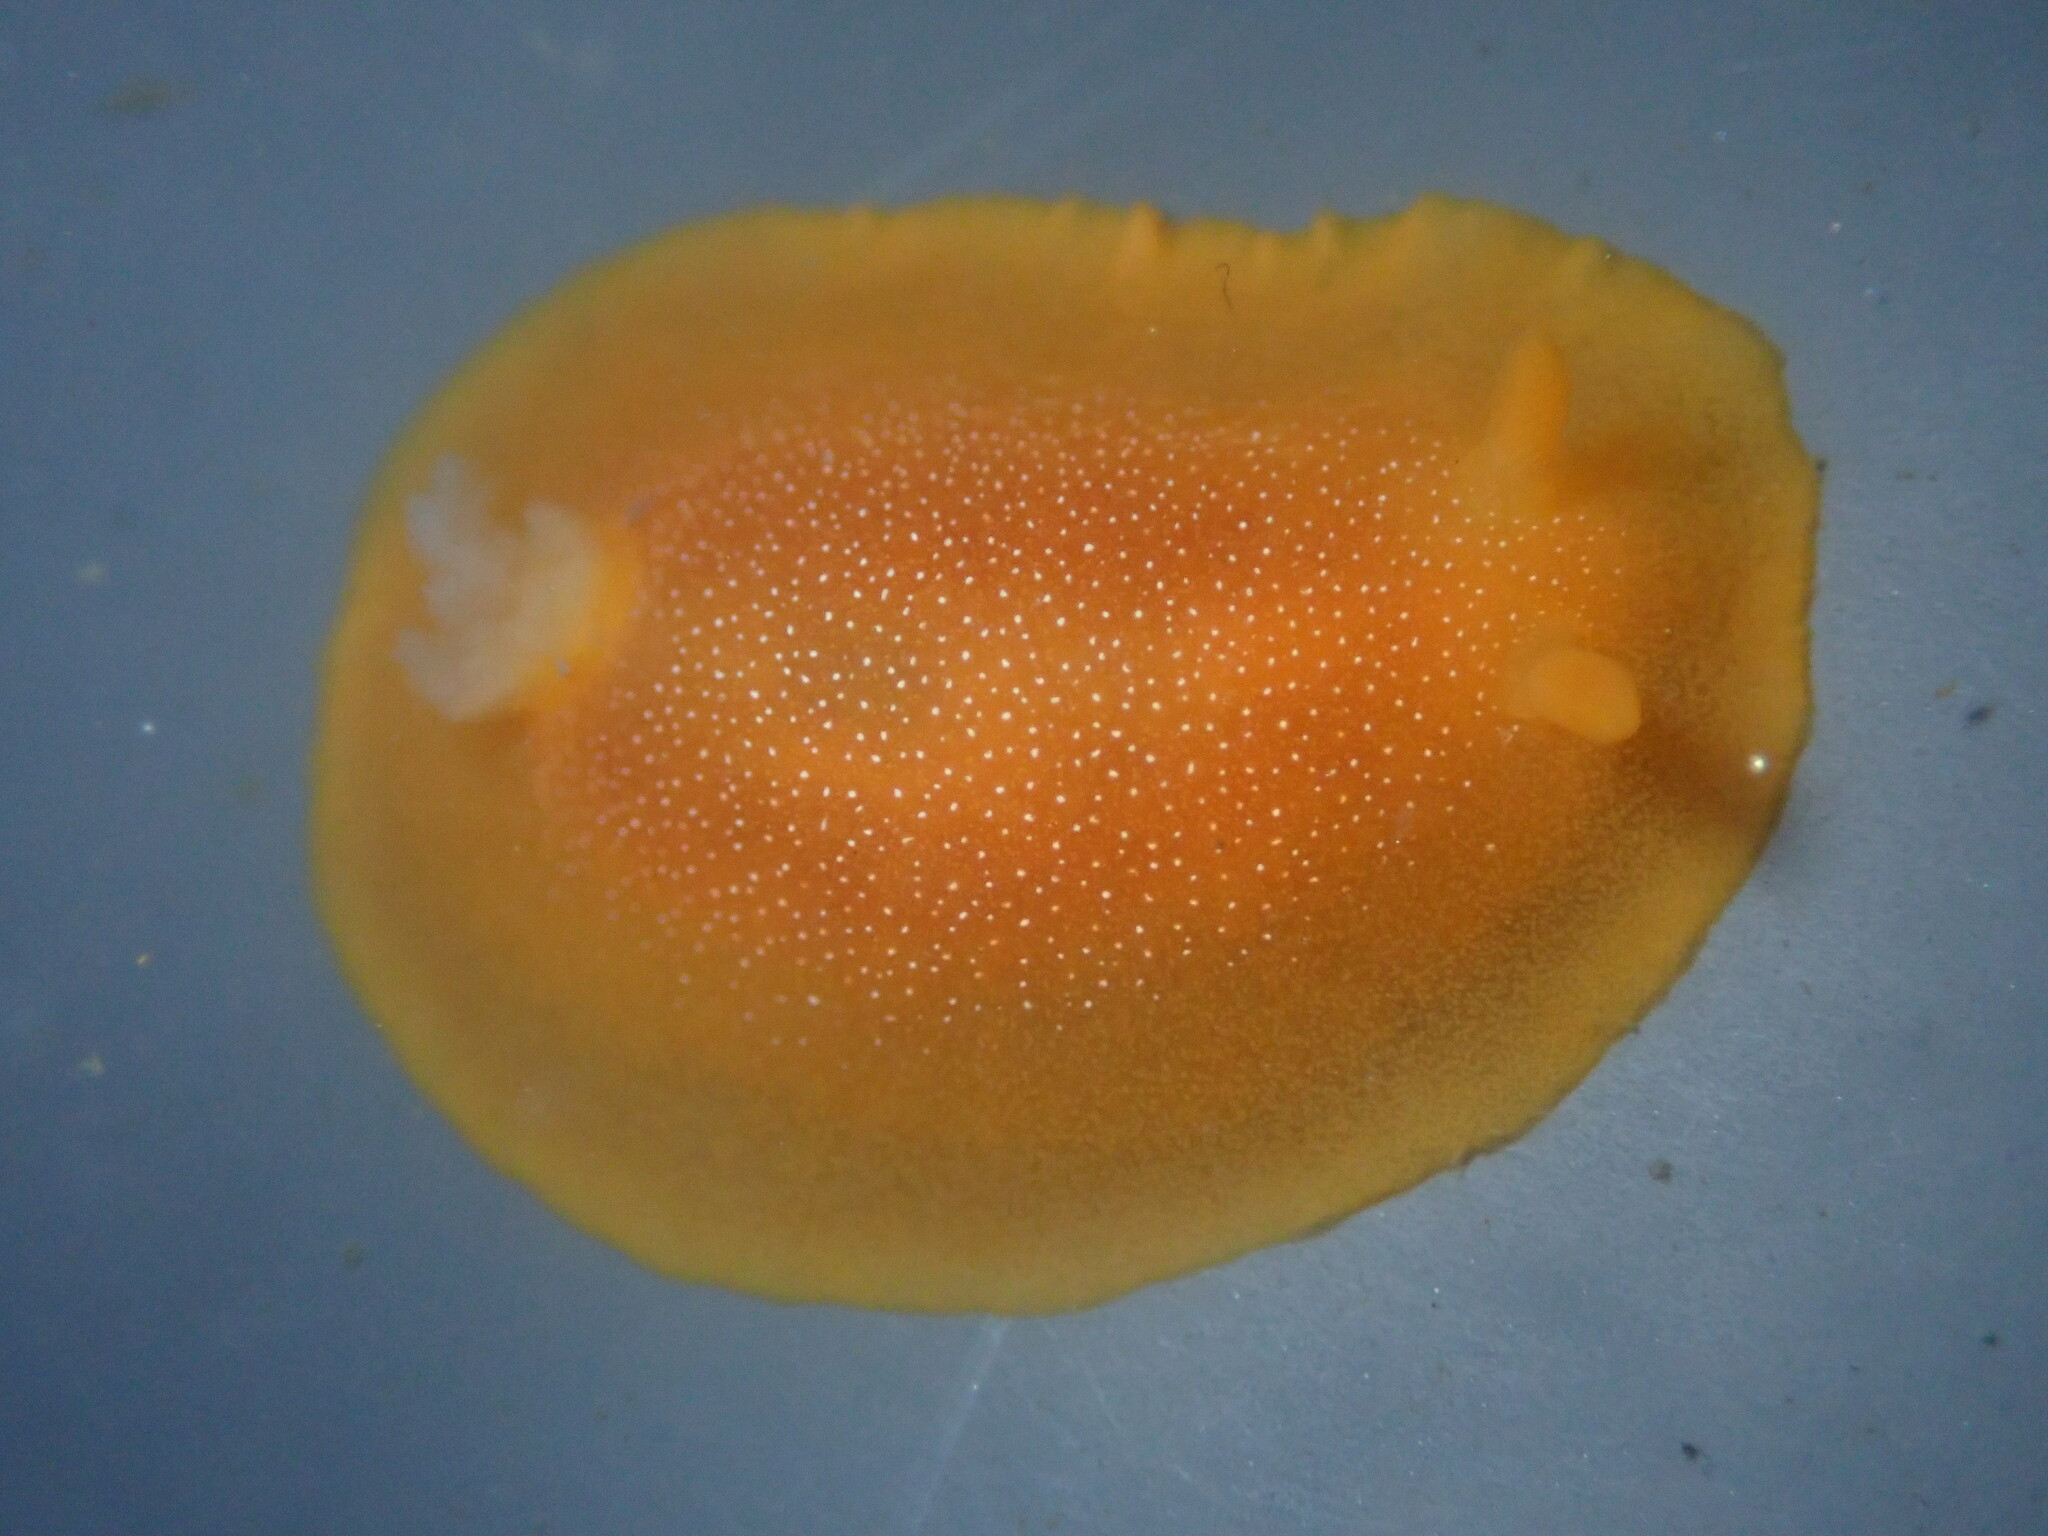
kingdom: Animalia
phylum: Mollusca
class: Gastropoda
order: Nudibranchia
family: Dendrodorididae
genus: Doriopsilla
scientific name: Doriopsilla albopunctata
